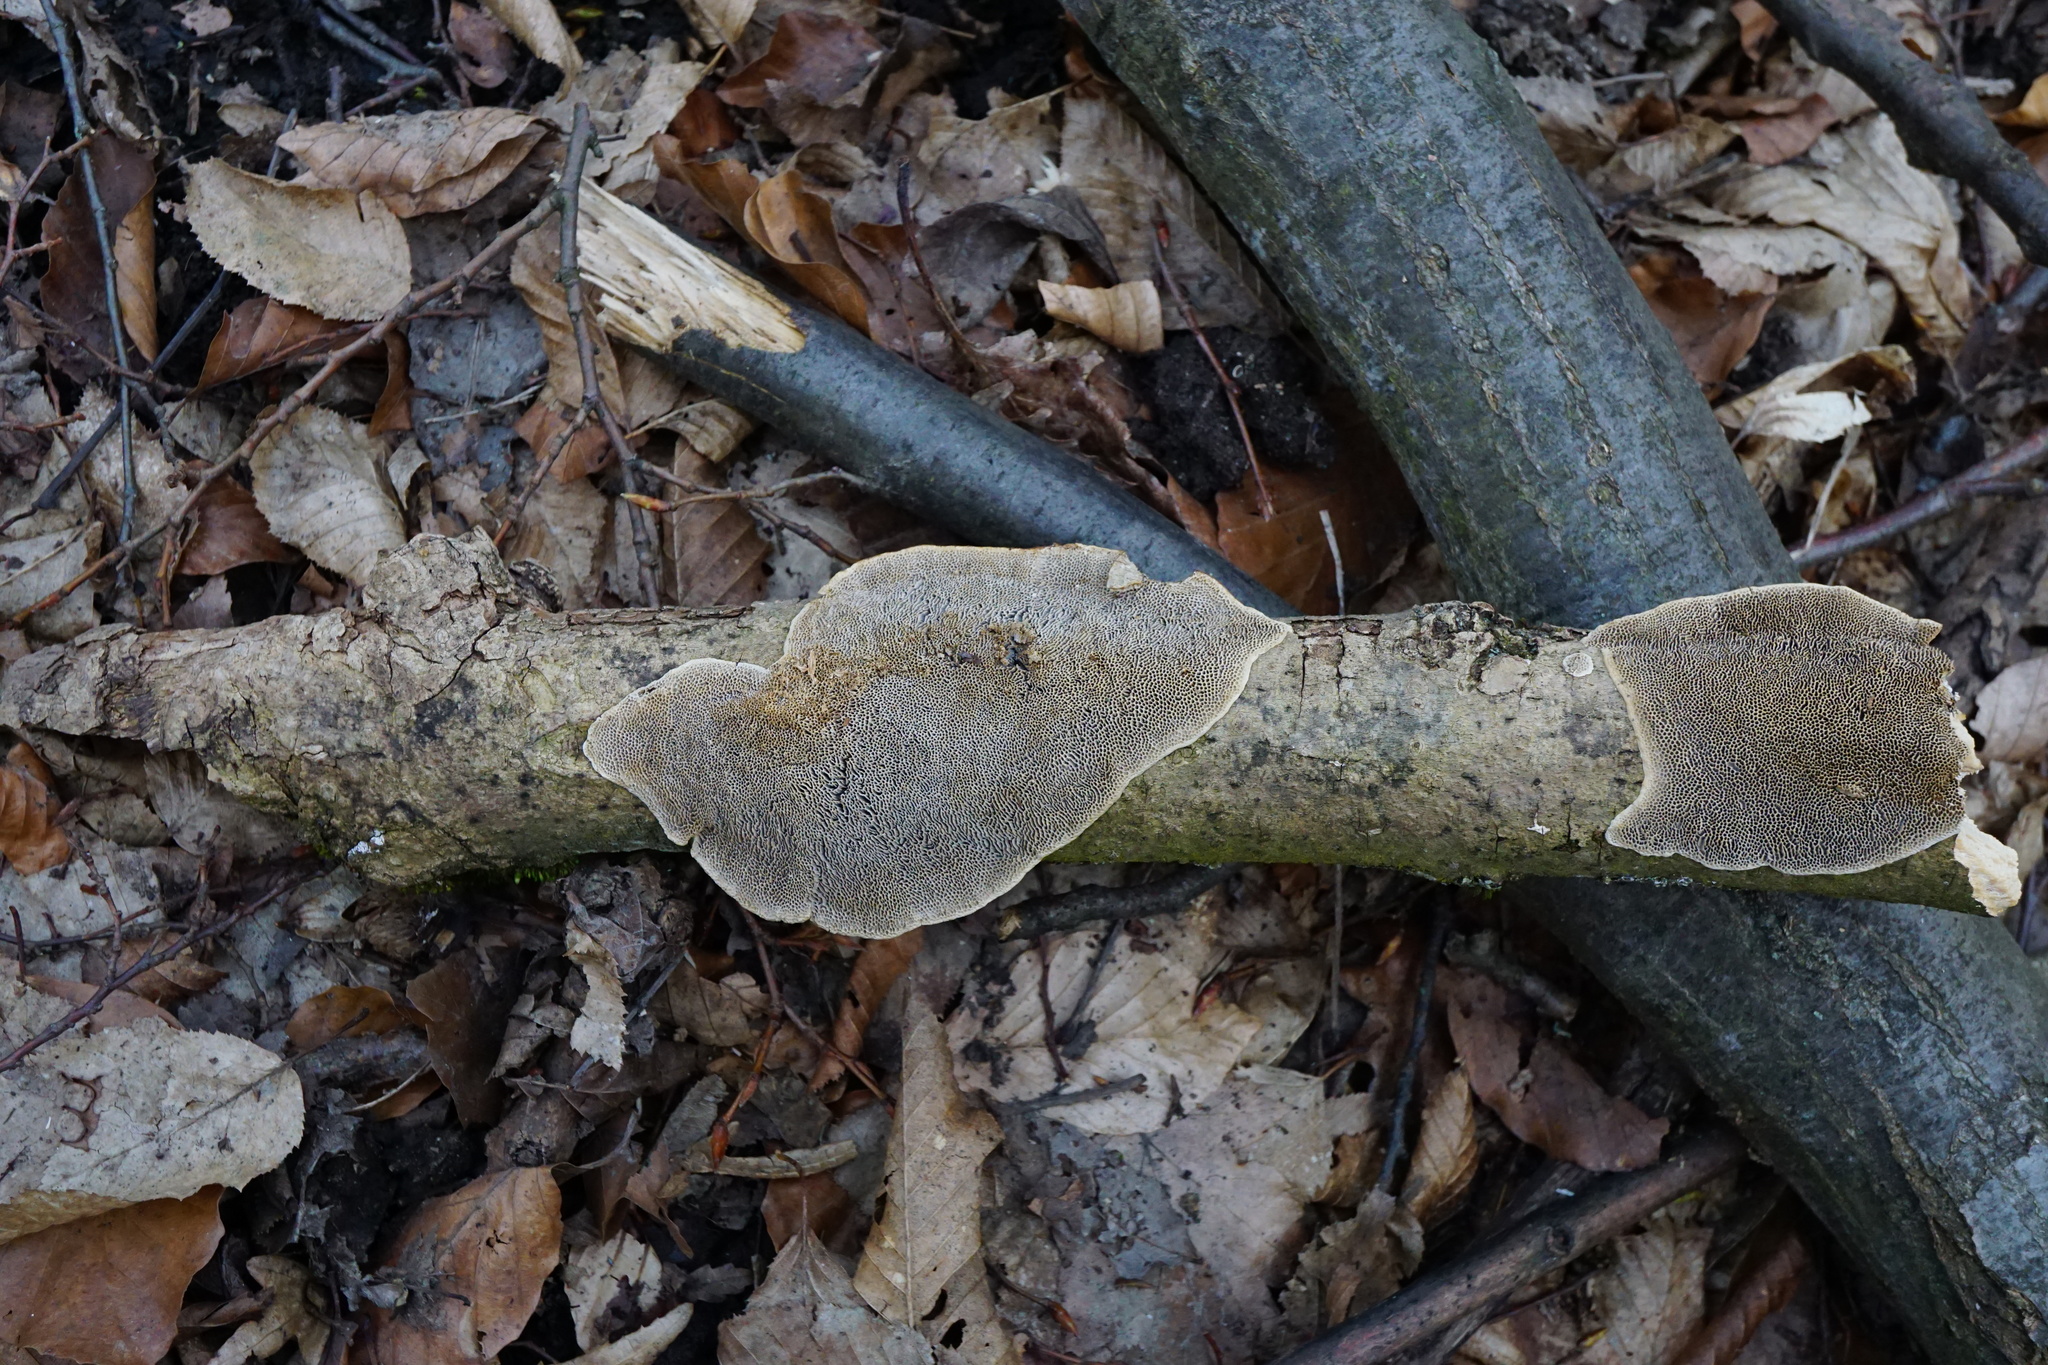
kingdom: Fungi
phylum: Basidiomycota
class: Agaricomycetes
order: Polyporales
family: Polyporaceae
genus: Coriolopsis
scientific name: Coriolopsis gallica
